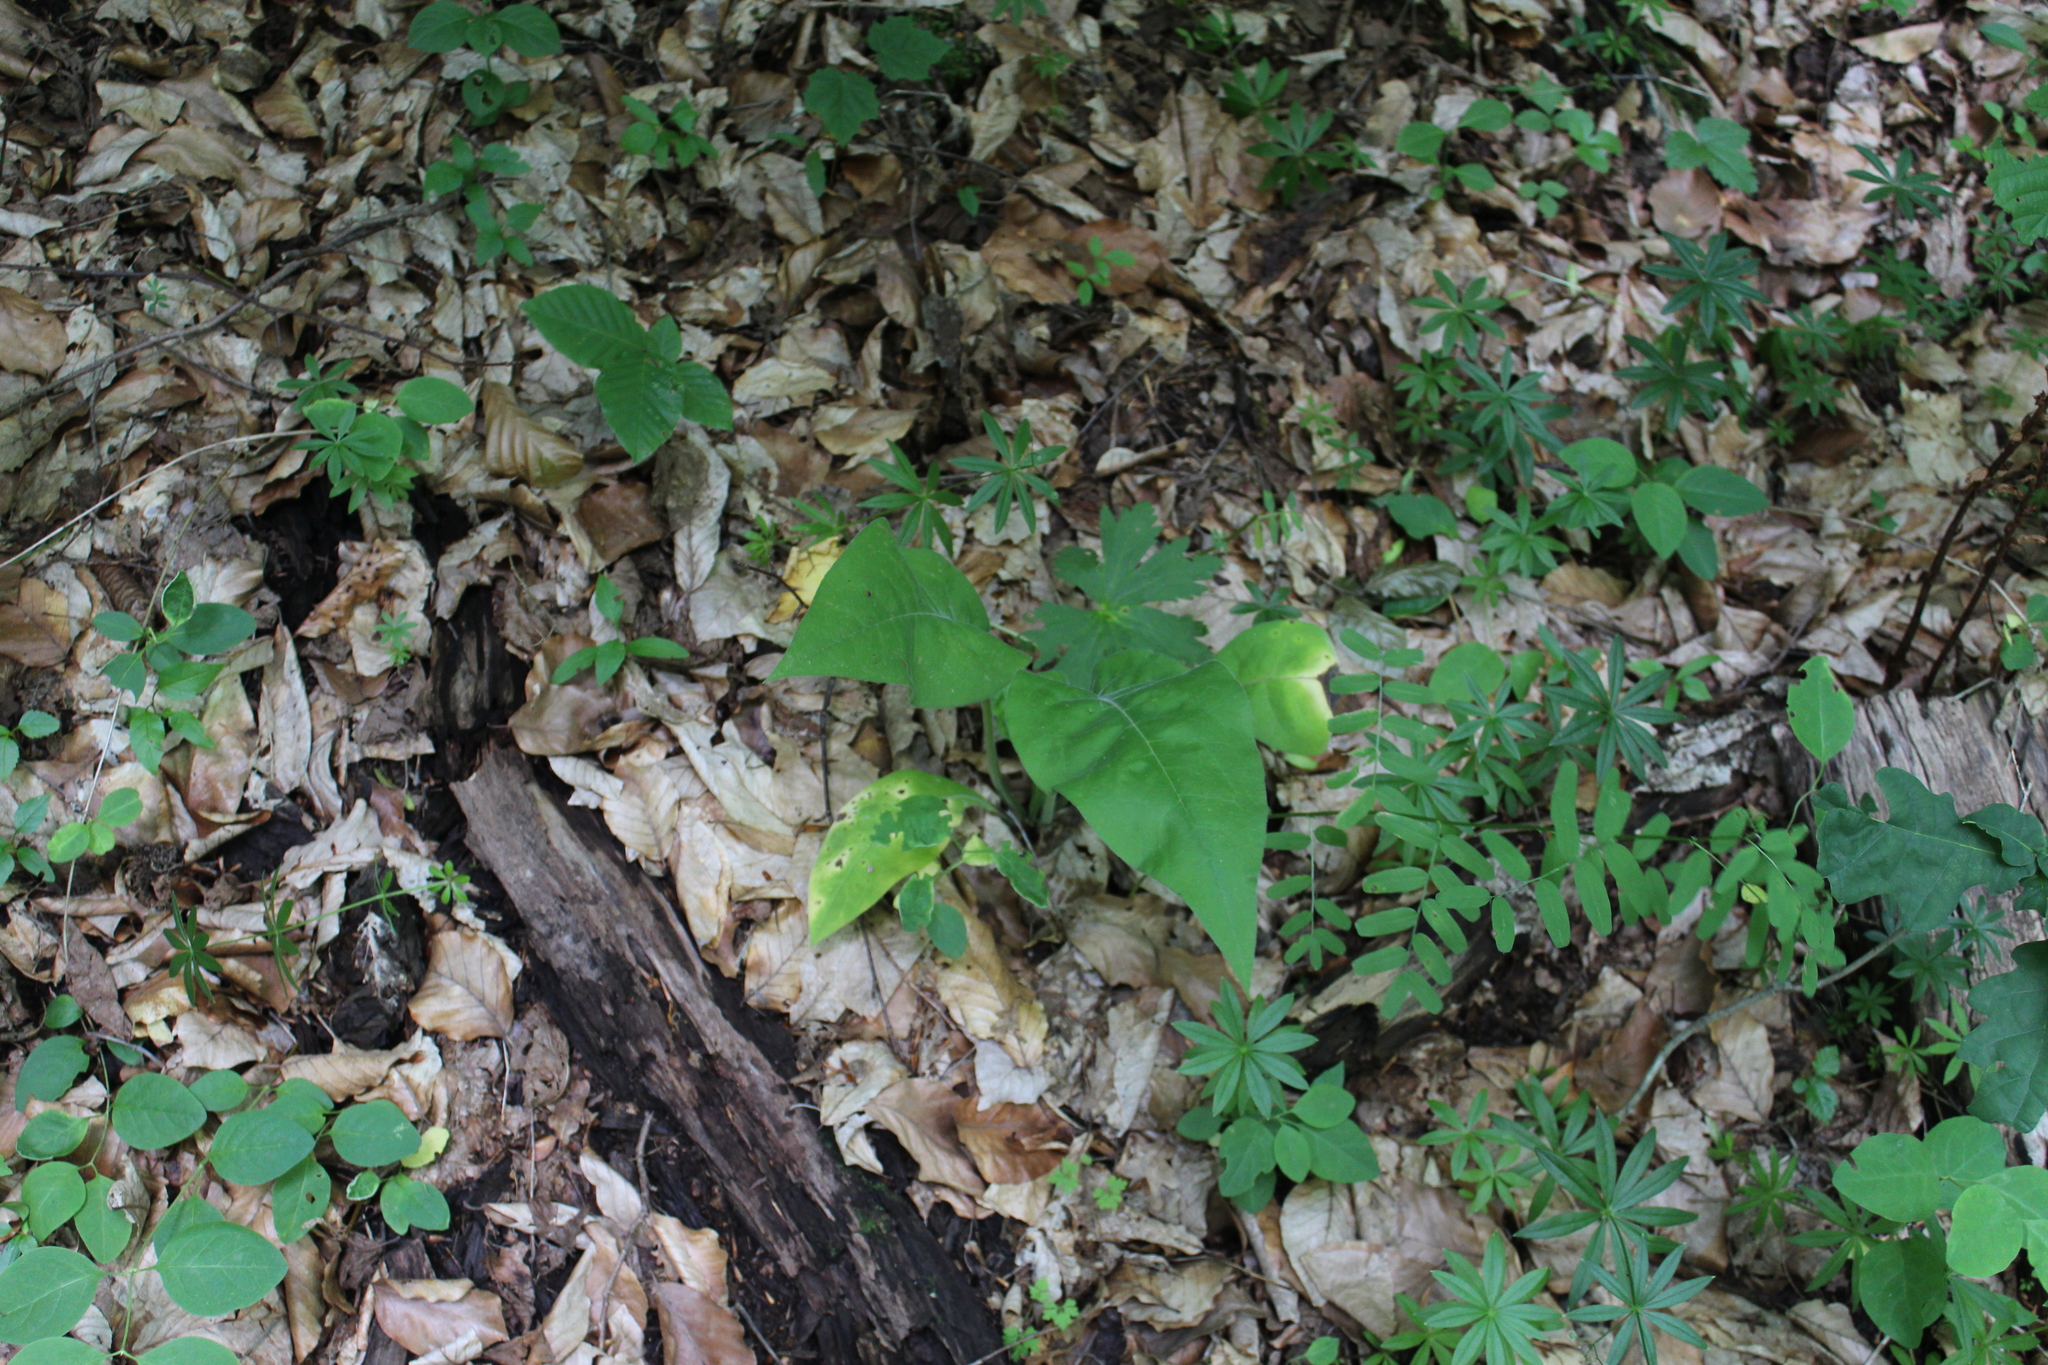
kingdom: Plantae
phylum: Tracheophyta
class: Magnoliopsida
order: Boraginales
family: Boraginaceae
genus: Pulmonaria
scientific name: Pulmonaria mollis
